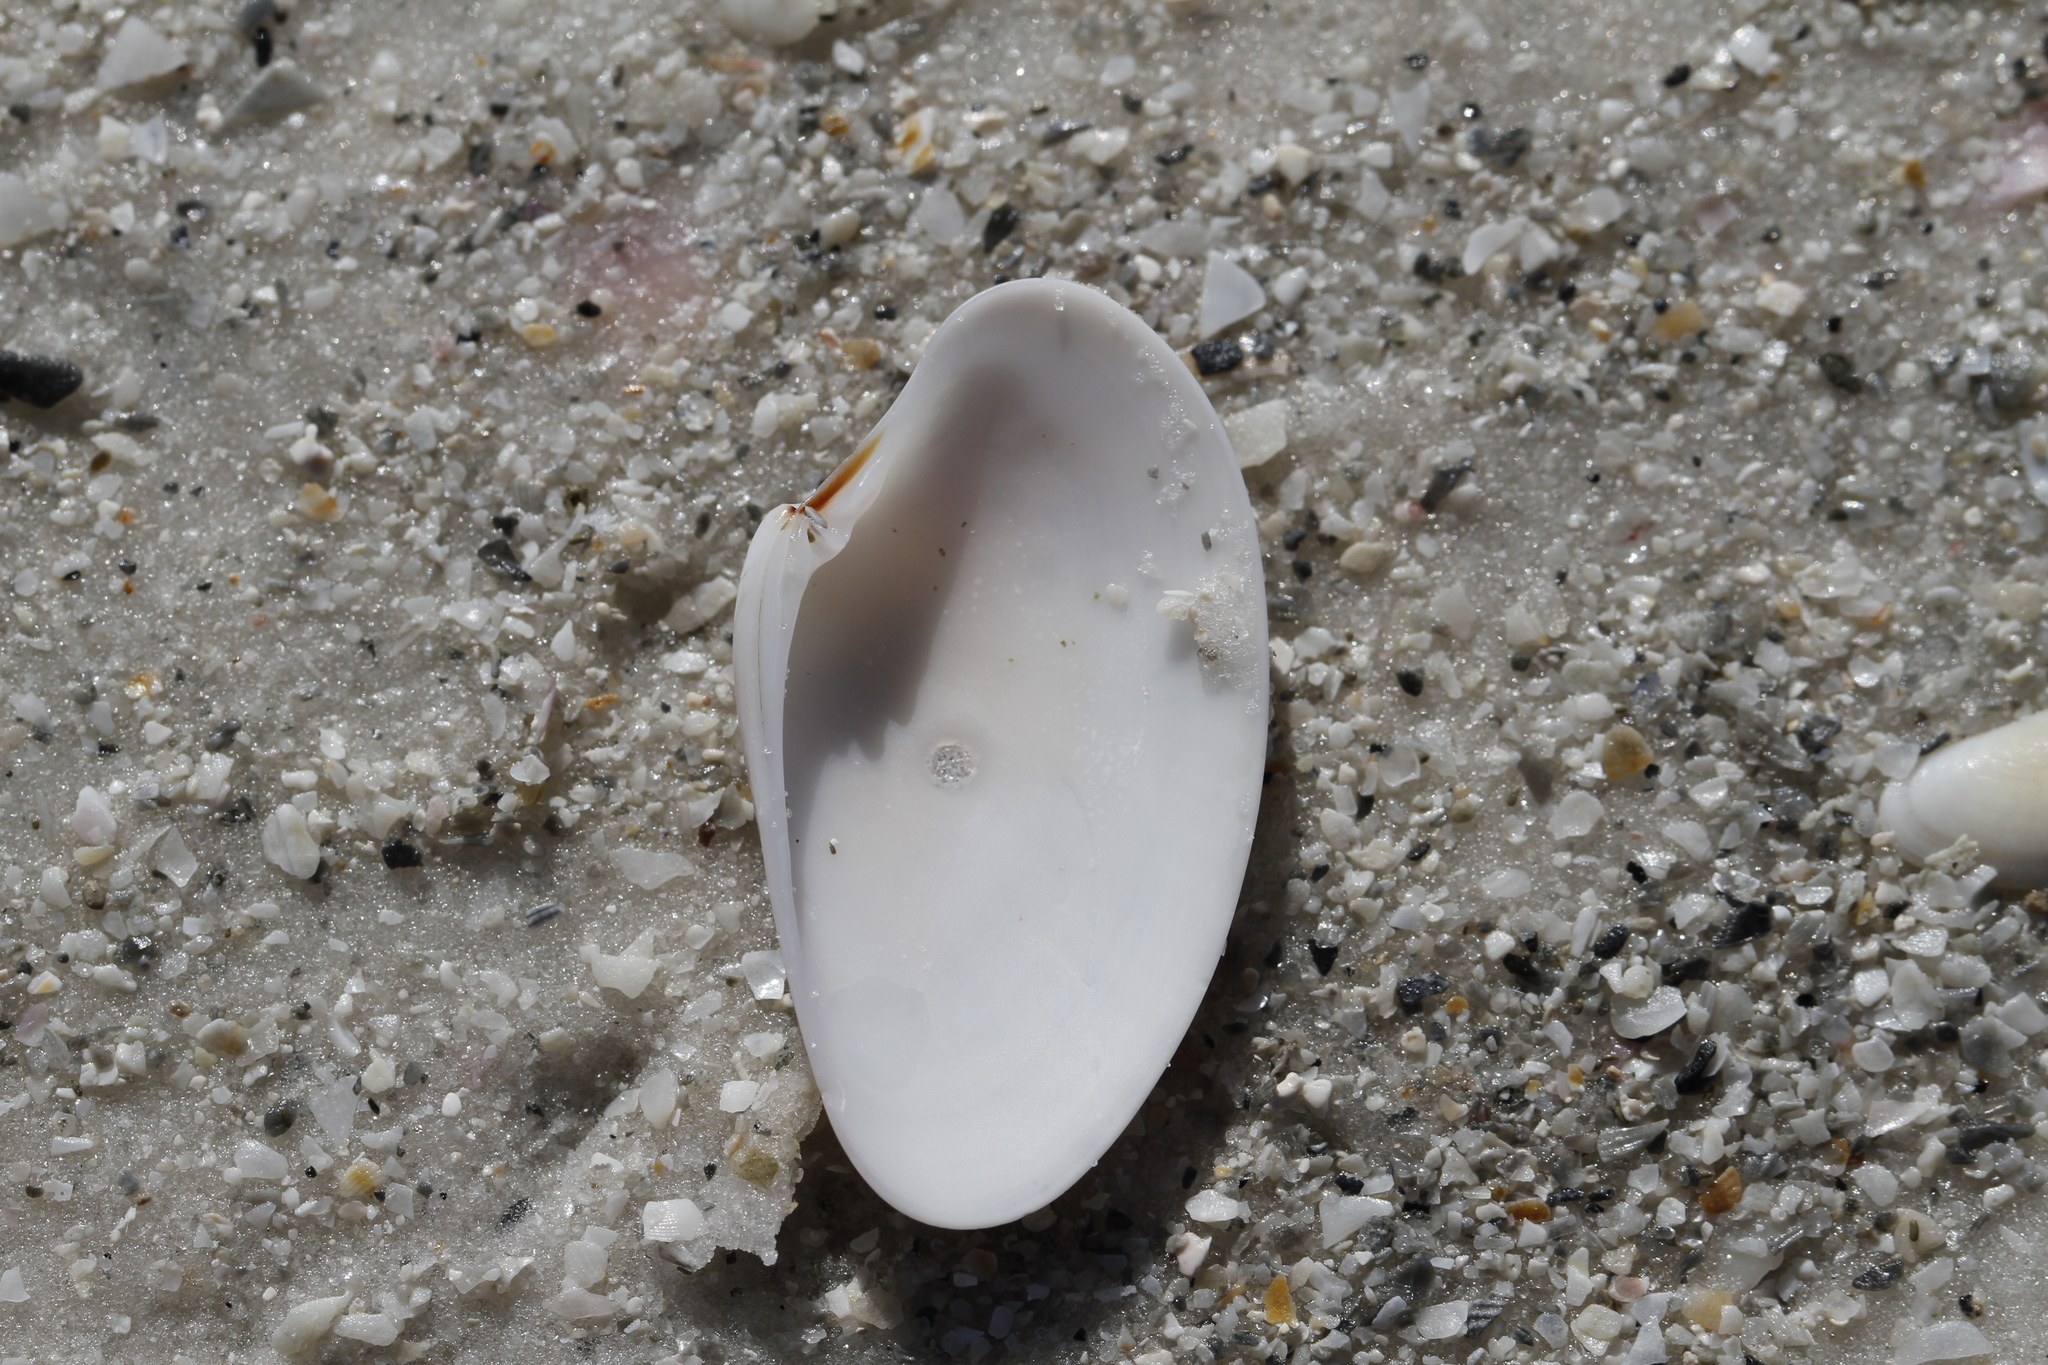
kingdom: Animalia
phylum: Mollusca
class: Bivalvia
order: Venerida
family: Veneridae
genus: Macrocallista
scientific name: Macrocallista nimbosa
